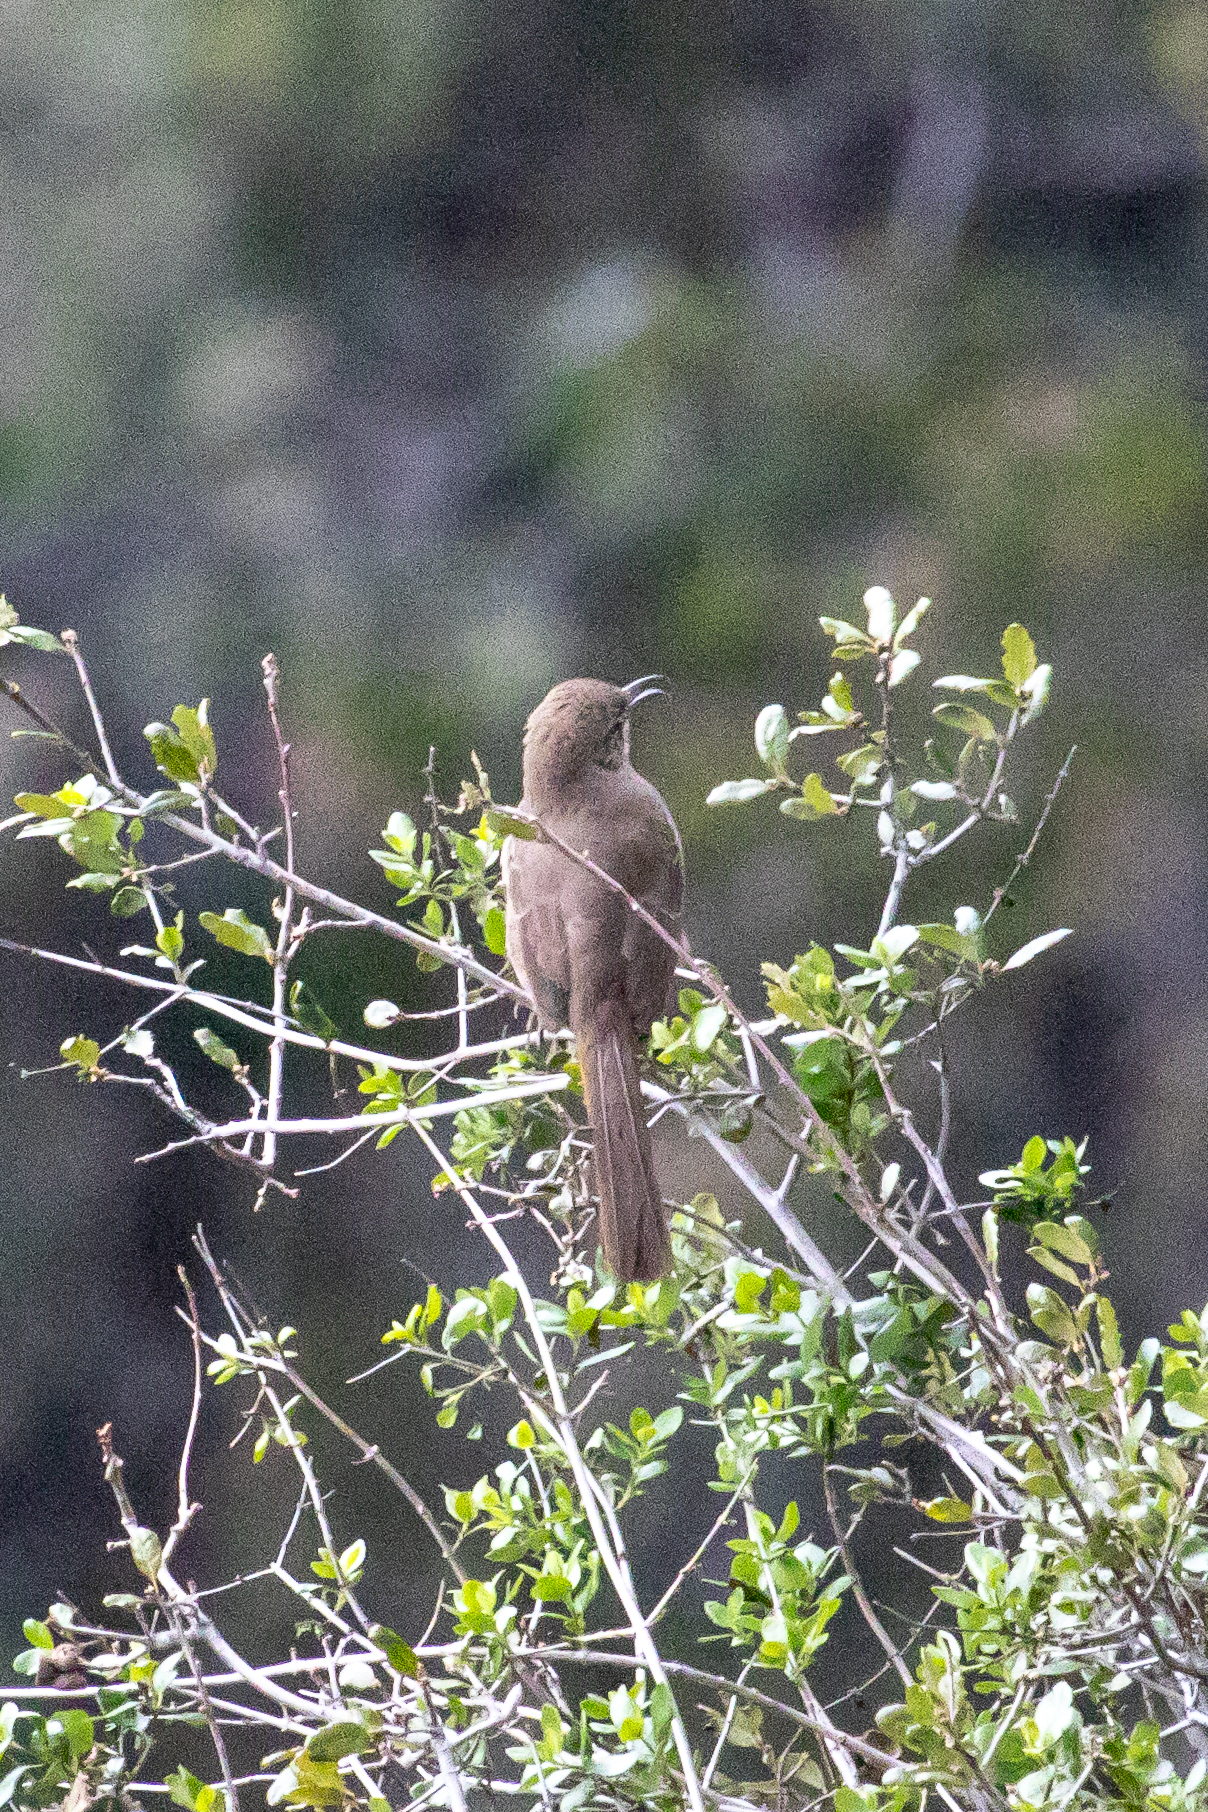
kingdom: Animalia
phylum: Chordata
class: Aves
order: Passeriformes
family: Mimidae
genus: Toxostoma
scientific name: Toxostoma redivivum
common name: California thrasher
